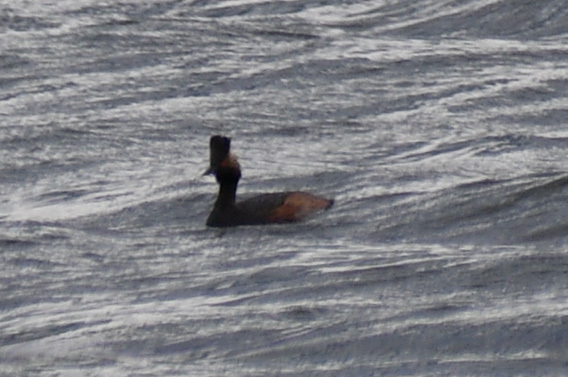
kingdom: Animalia
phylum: Chordata
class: Aves
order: Podicipediformes
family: Podicipedidae
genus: Podiceps
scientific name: Podiceps nigricollis
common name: Black-necked grebe
